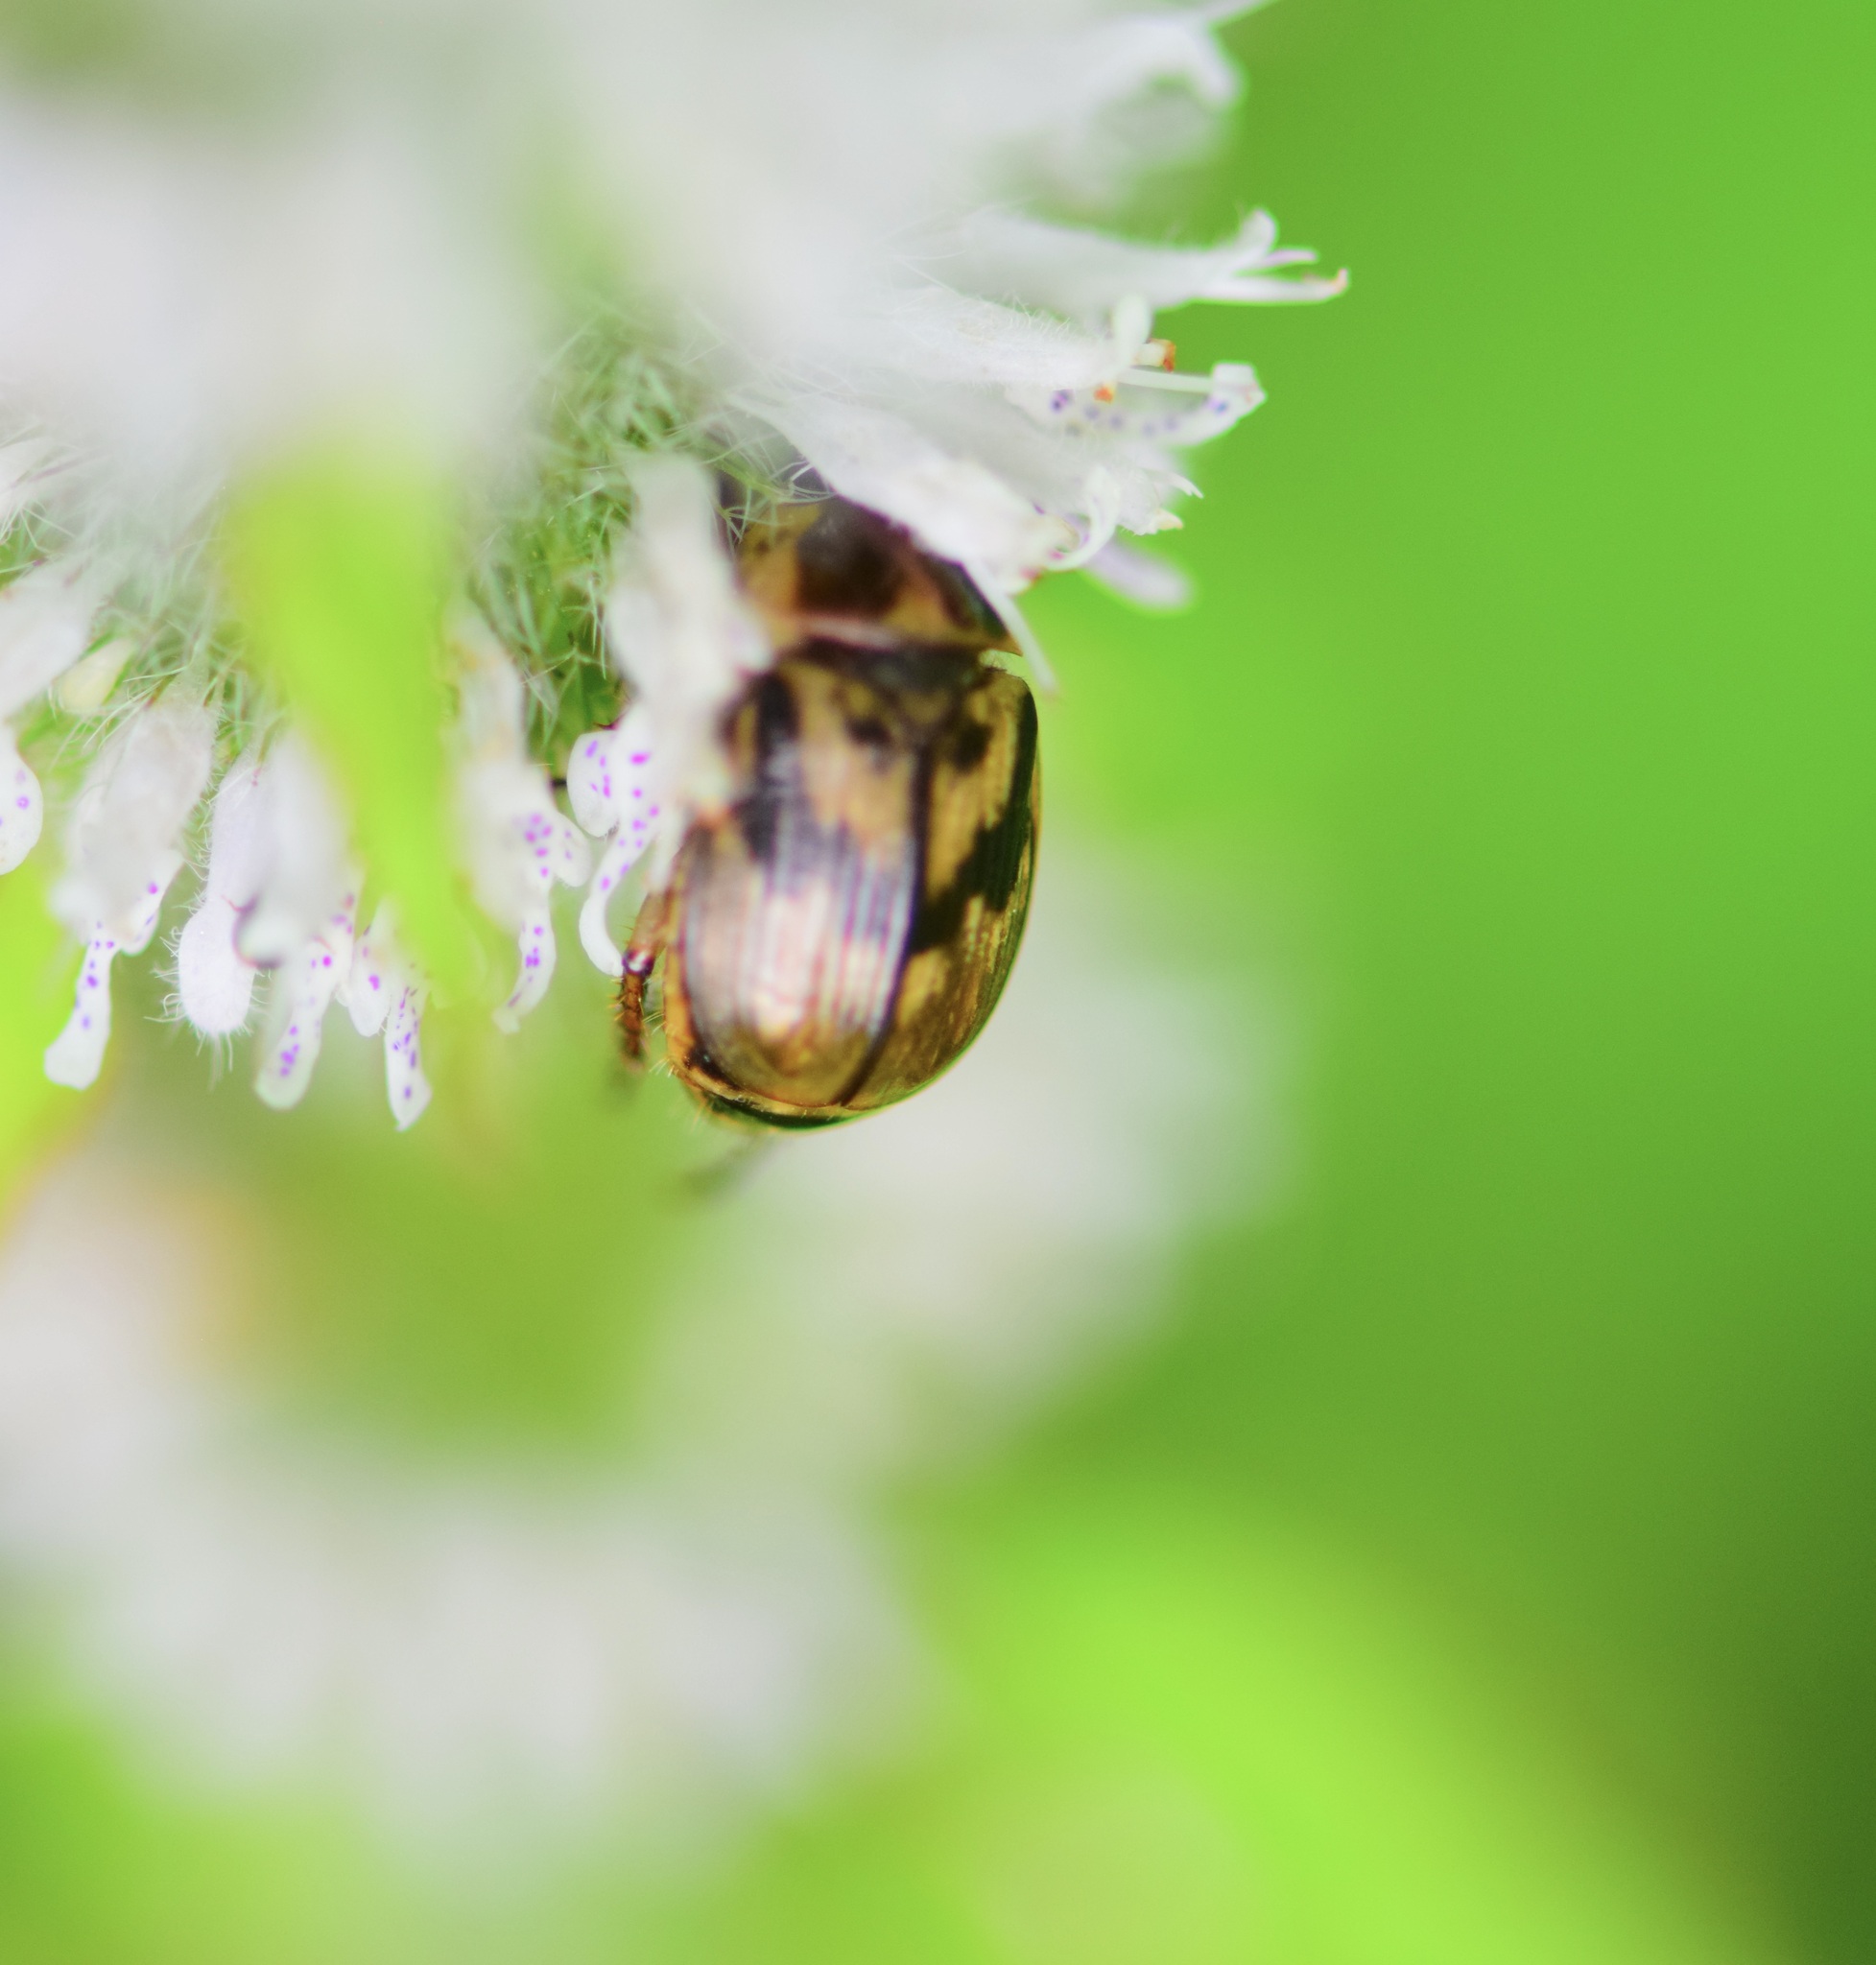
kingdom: Animalia
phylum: Arthropoda
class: Insecta
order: Coleoptera
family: Scarabaeidae
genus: Exomala
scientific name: Exomala orientalis
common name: Oriental beetle
